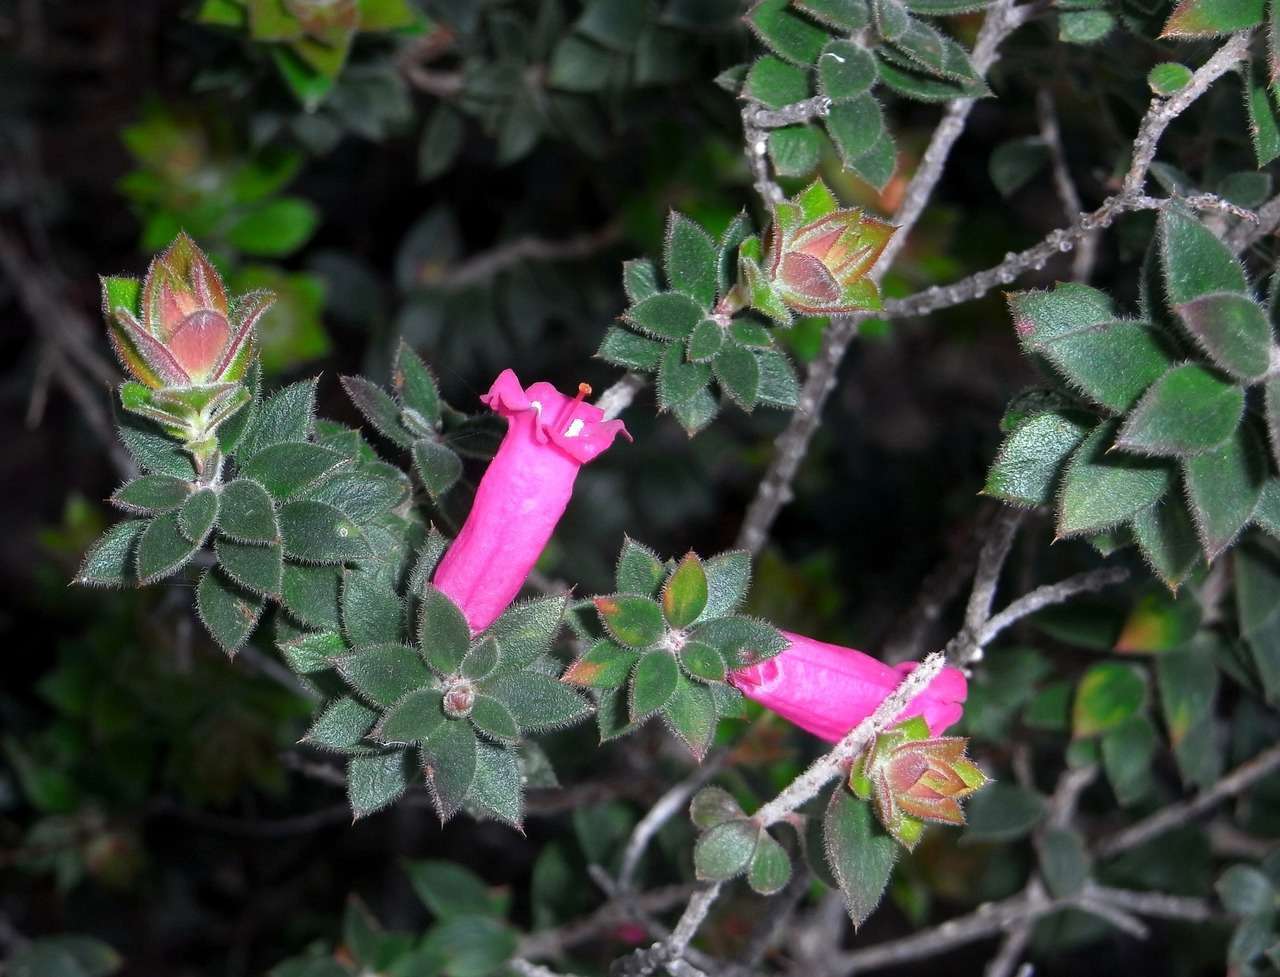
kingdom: Plantae
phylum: Tracheophyta
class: Magnoliopsida
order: Ericales
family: Ericaceae
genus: Epacris
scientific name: Epacris impressa
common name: Common-heath
